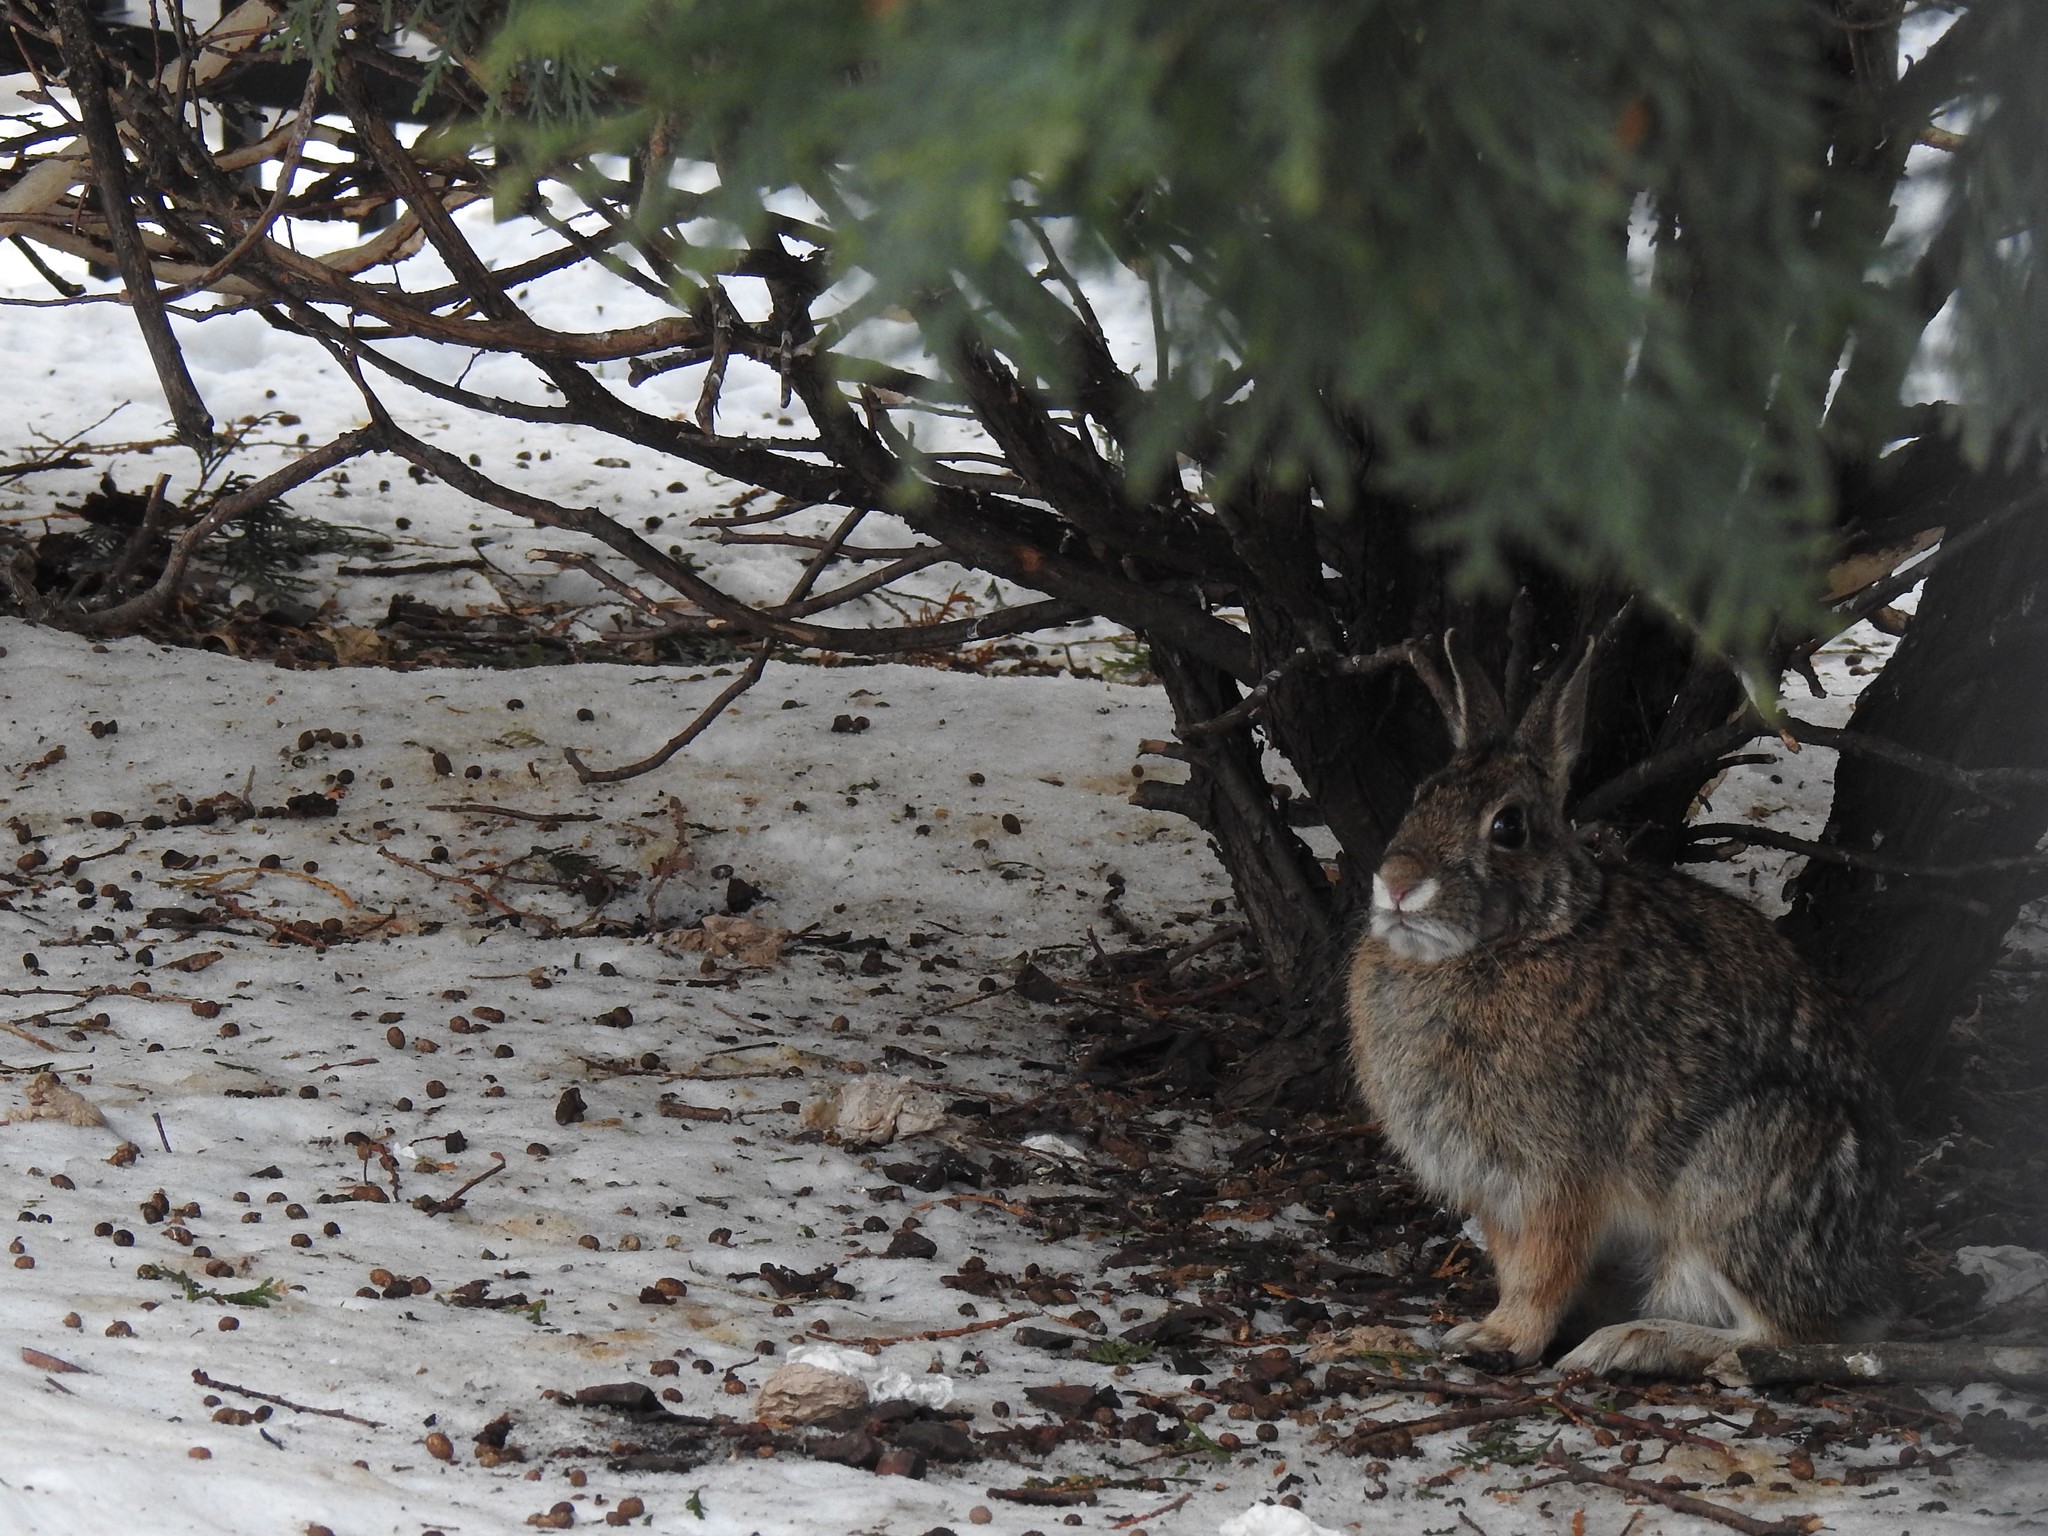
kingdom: Animalia
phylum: Chordata
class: Mammalia
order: Lagomorpha
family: Leporidae
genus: Sylvilagus
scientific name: Sylvilagus floridanus
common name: Eastern cottontail
